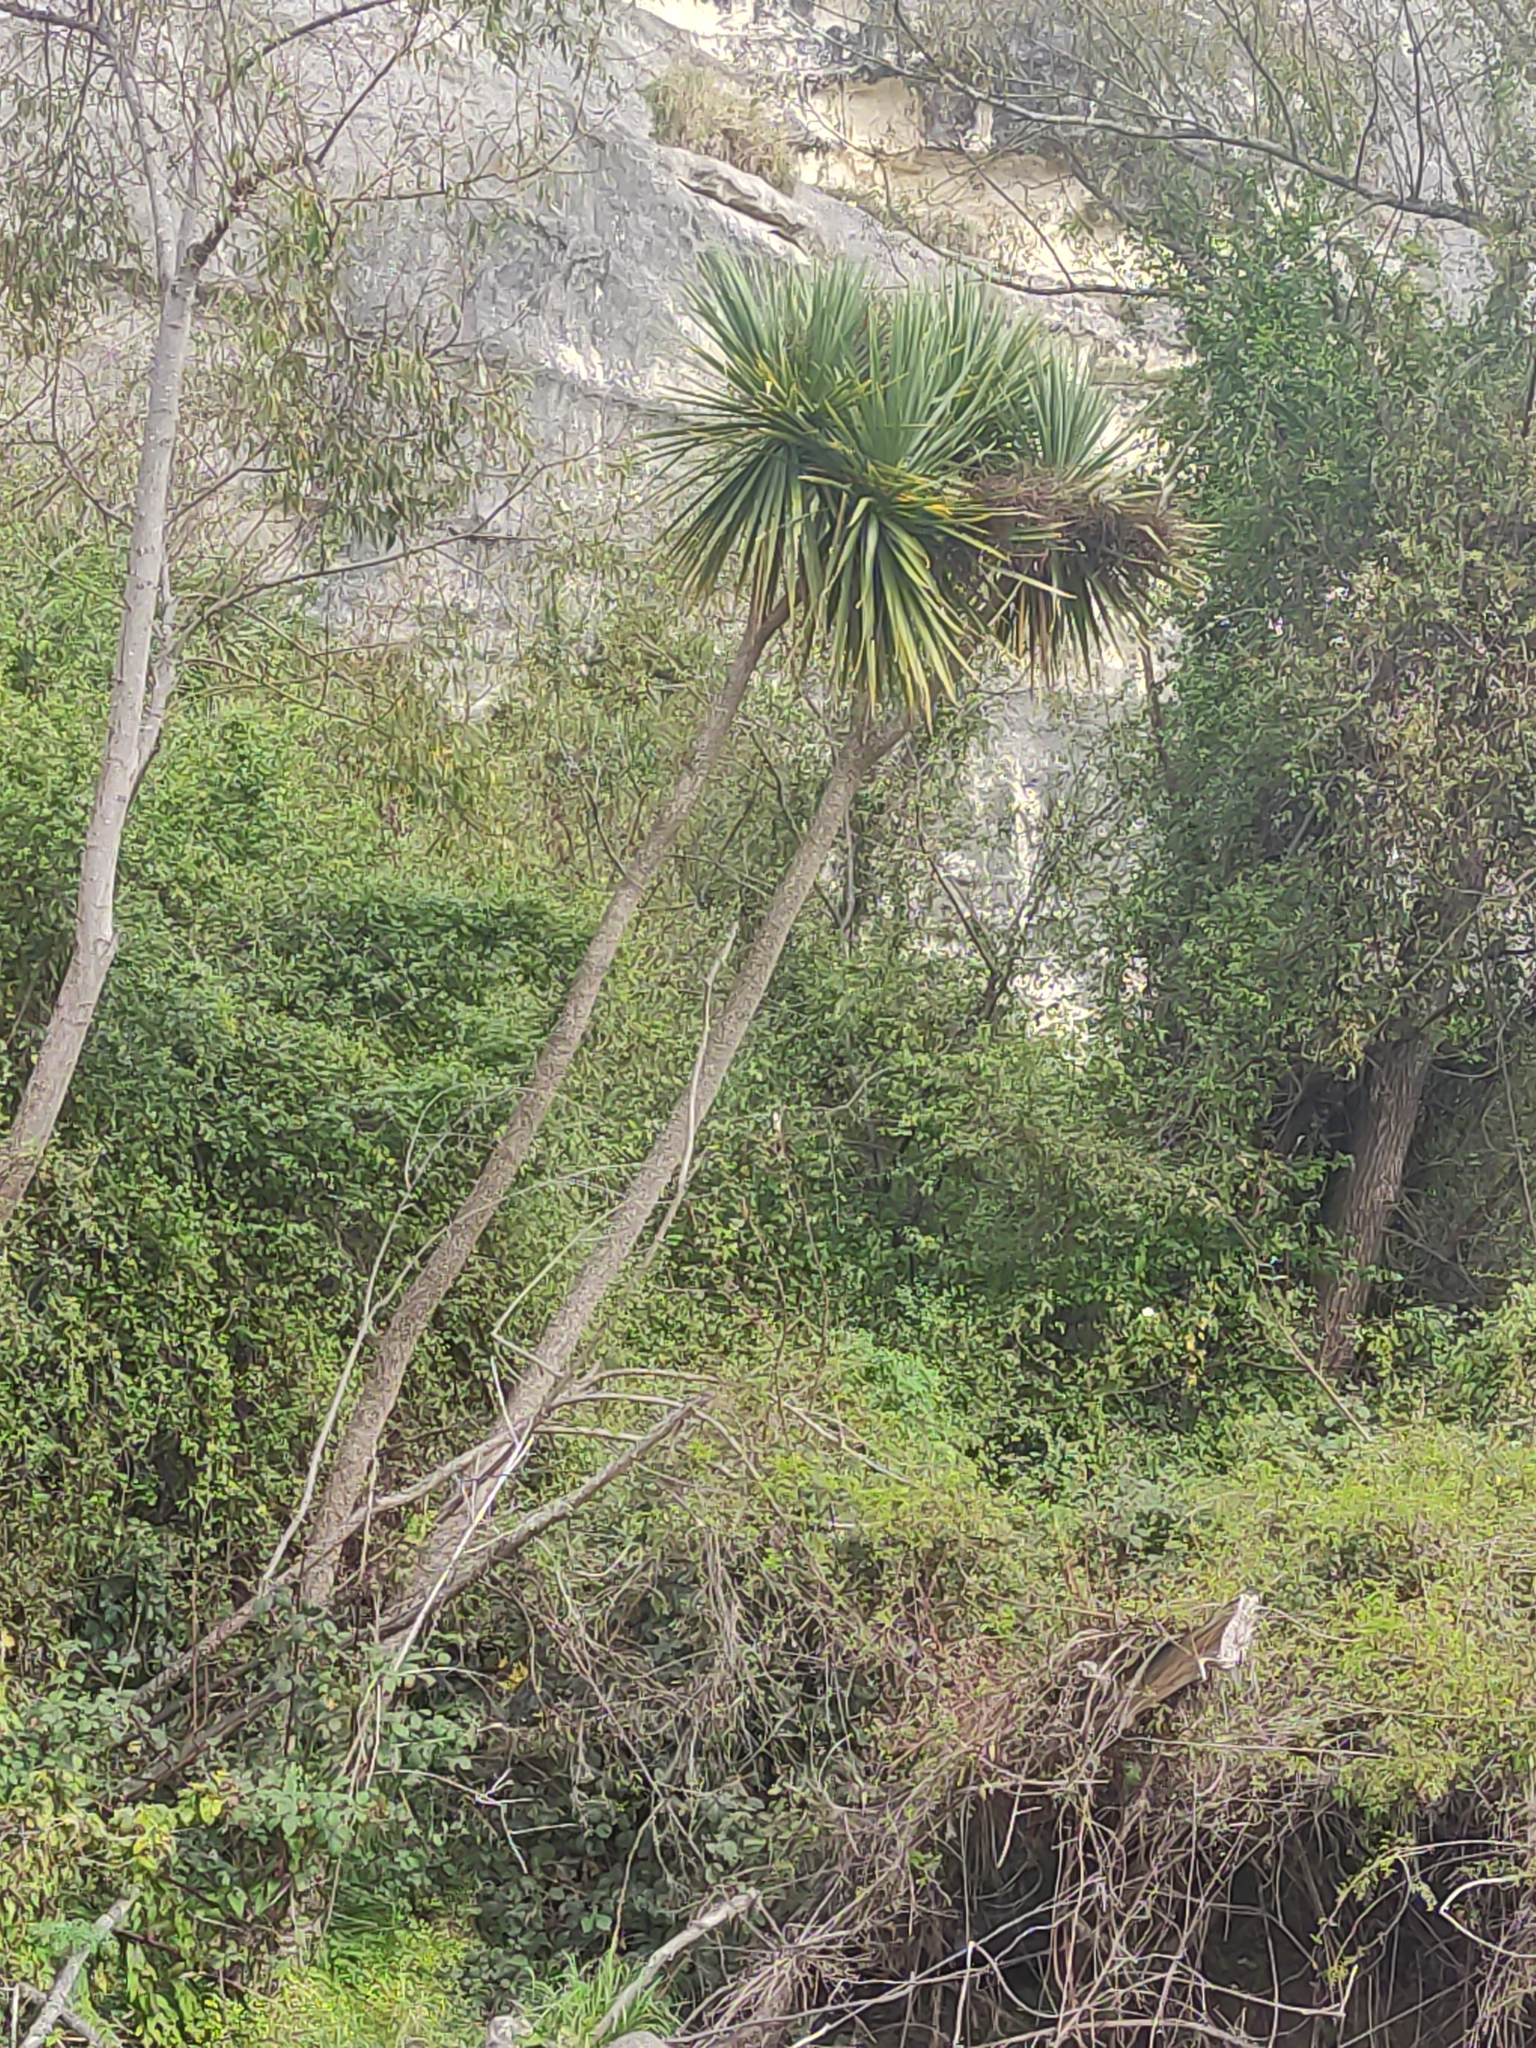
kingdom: Plantae
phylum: Tracheophyta
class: Liliopsida
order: Asparagales
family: Asparagaceae
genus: Cordyline
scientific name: Cordyline australis
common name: Cabbage-palm
